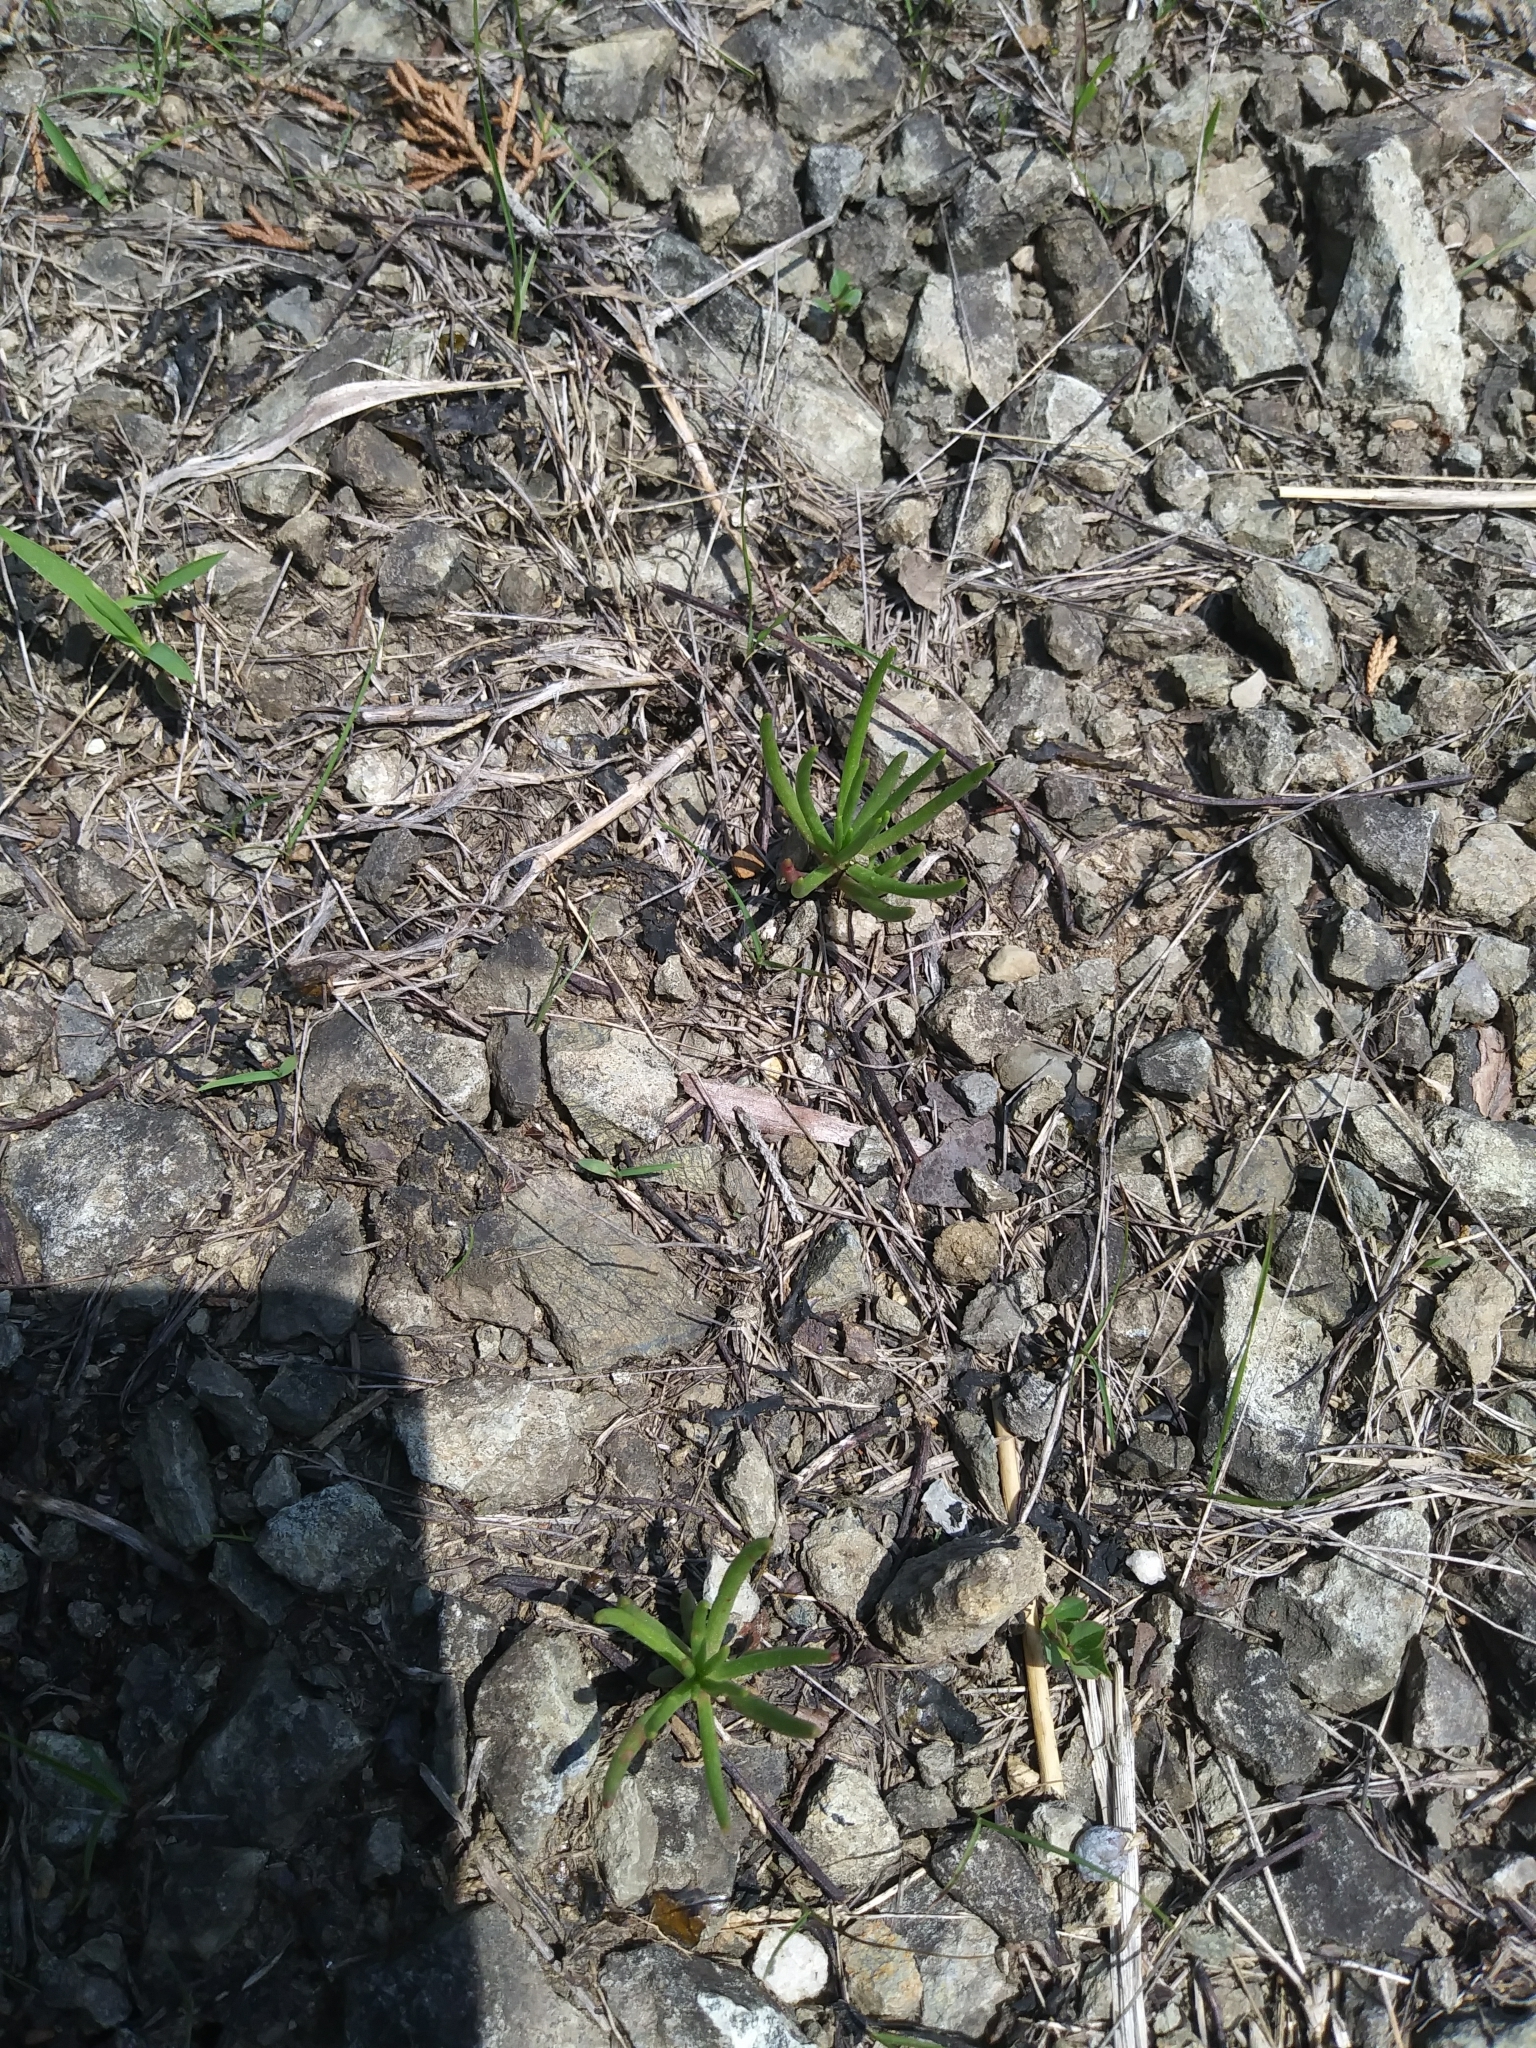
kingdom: Plantae
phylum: Tracheophyta
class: Magnoliopsida
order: Caryophyllales
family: Montiaceae
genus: Phemeranthus
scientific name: Phemeranthus teretifolius
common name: Quill fameflower
